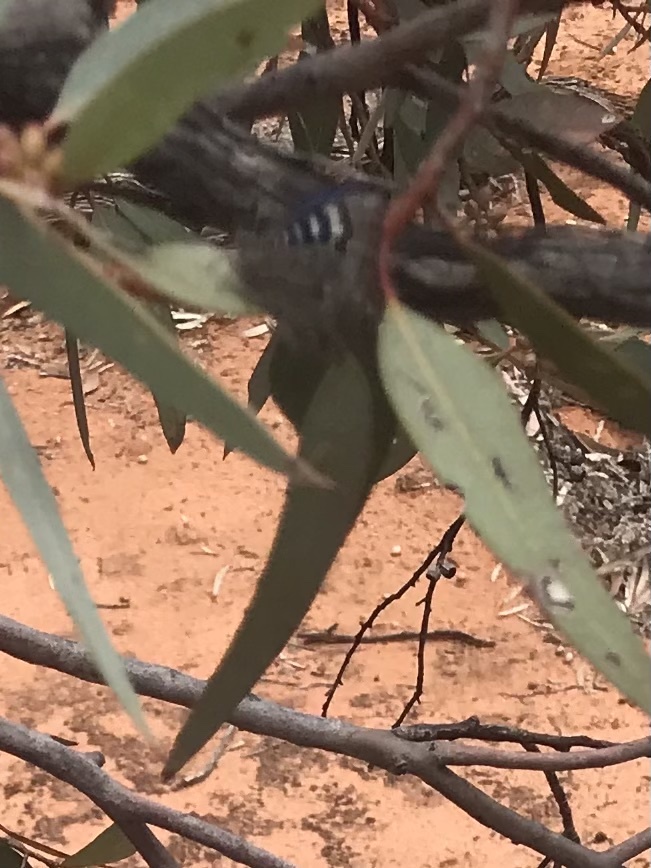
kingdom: Animalia
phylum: Arthropoda
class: Insecta
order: Lepidoptera
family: Lycaenidae
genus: Ogyris
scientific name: Ogyris amaryllis
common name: Satin azure
